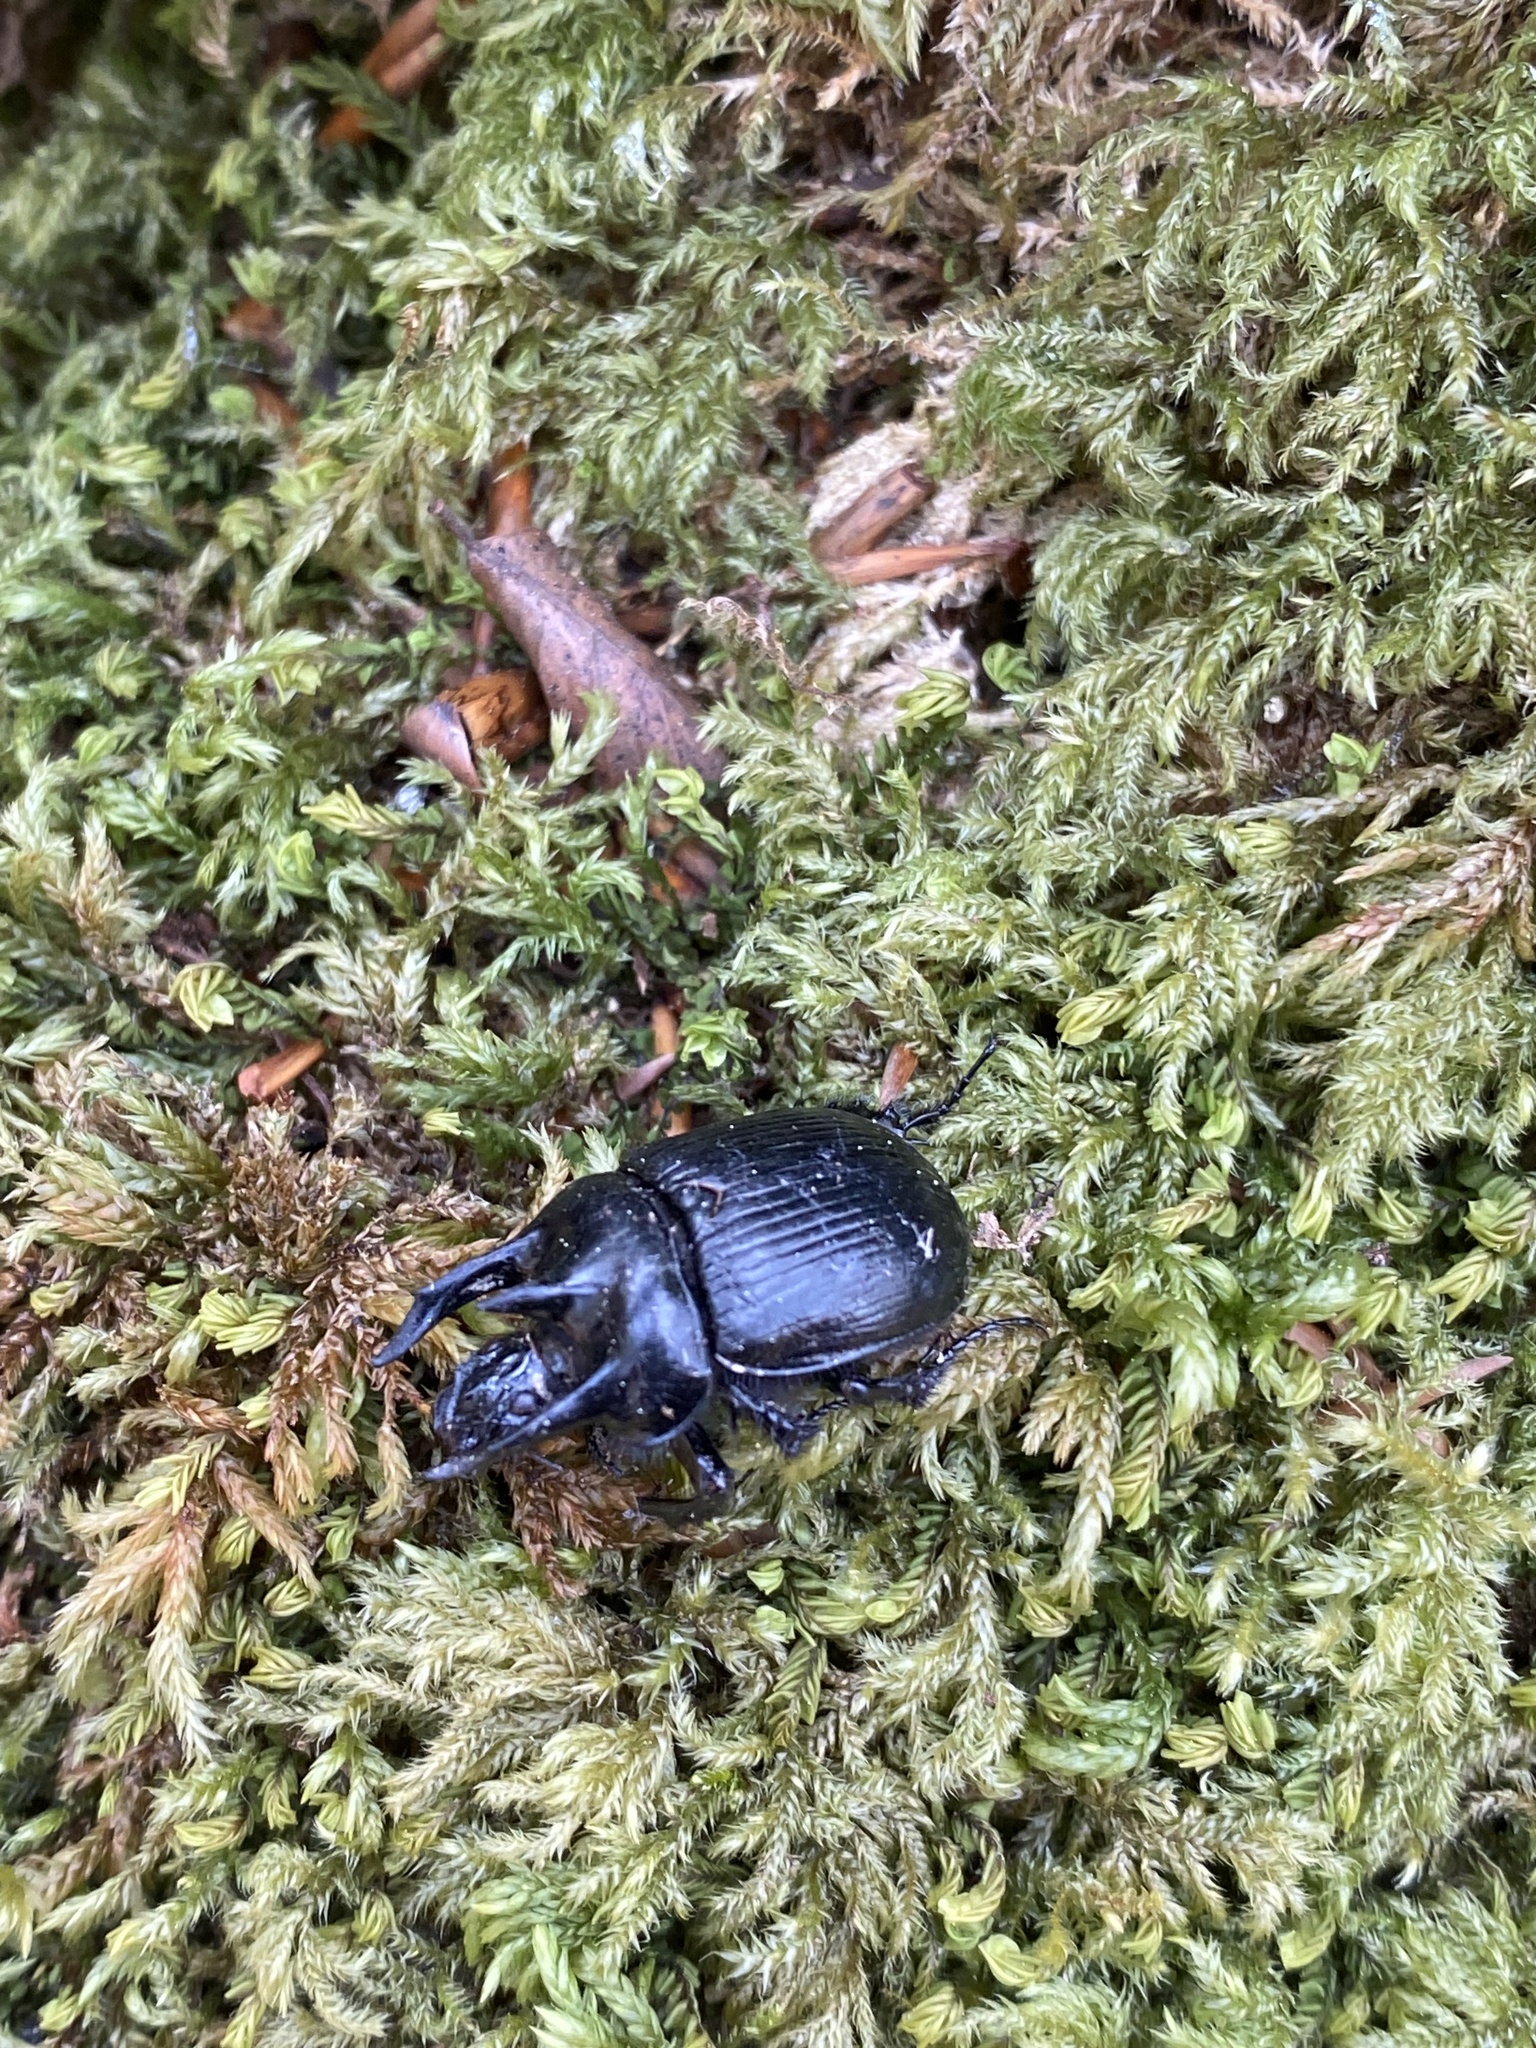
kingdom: Animalia
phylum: Arthropoda
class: Insecta
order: Coleoptera
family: Geotrupidae
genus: Typhaeus
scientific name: Typhaeus typhoeus
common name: Minotaur beetle
